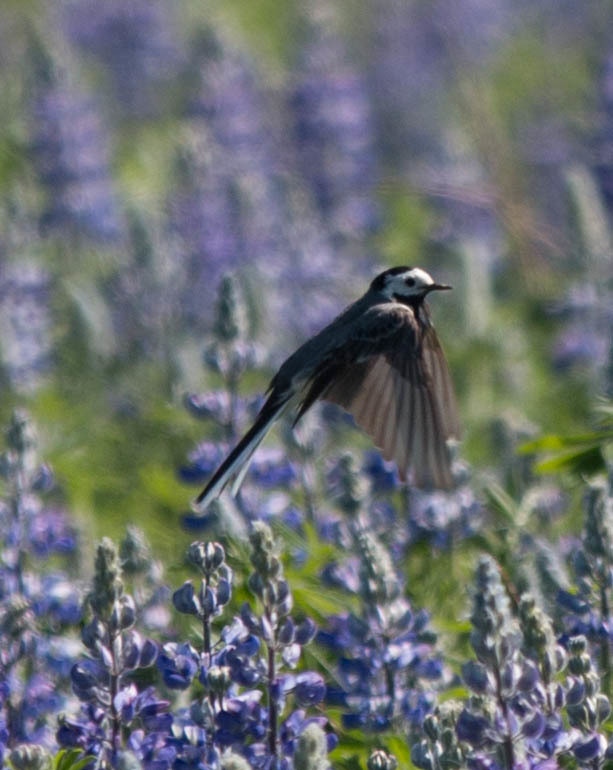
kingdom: Animalia
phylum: Chordata
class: Aves
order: Passeriformes
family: Motacillidae
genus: Motacilla
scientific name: Motacilla alba
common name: White wagtail
